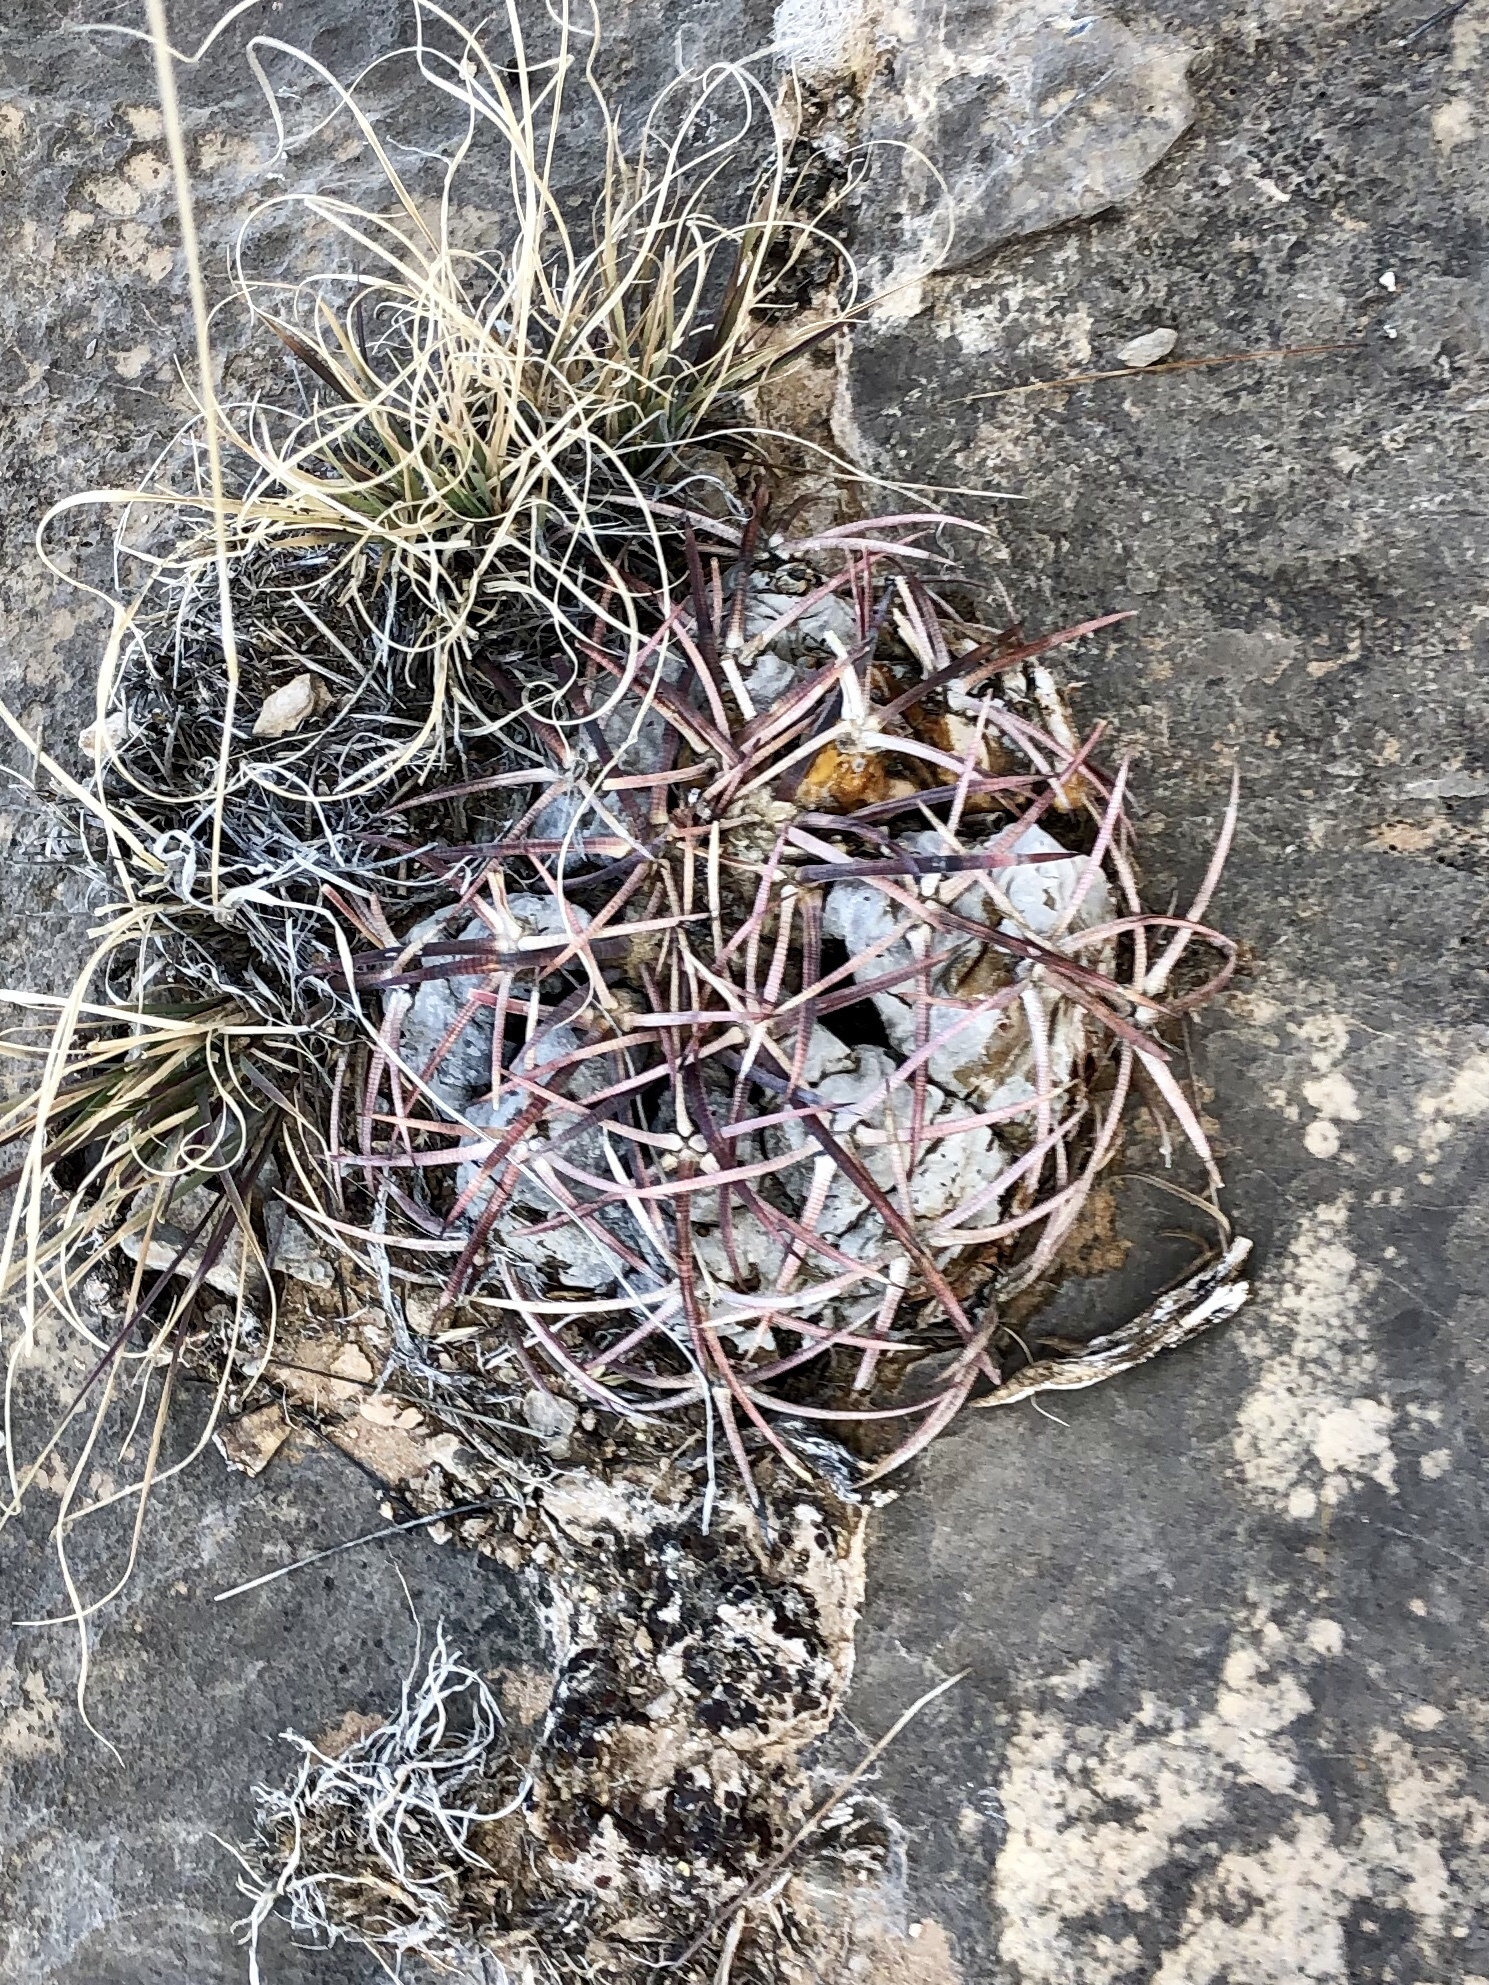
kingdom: Plantae
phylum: Tracheophyta
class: Magnoliopsida
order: Caryophyllales
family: Cactaceae
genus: Echinocactus
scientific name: Echinocactus horizonthalonius
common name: Devilshead
